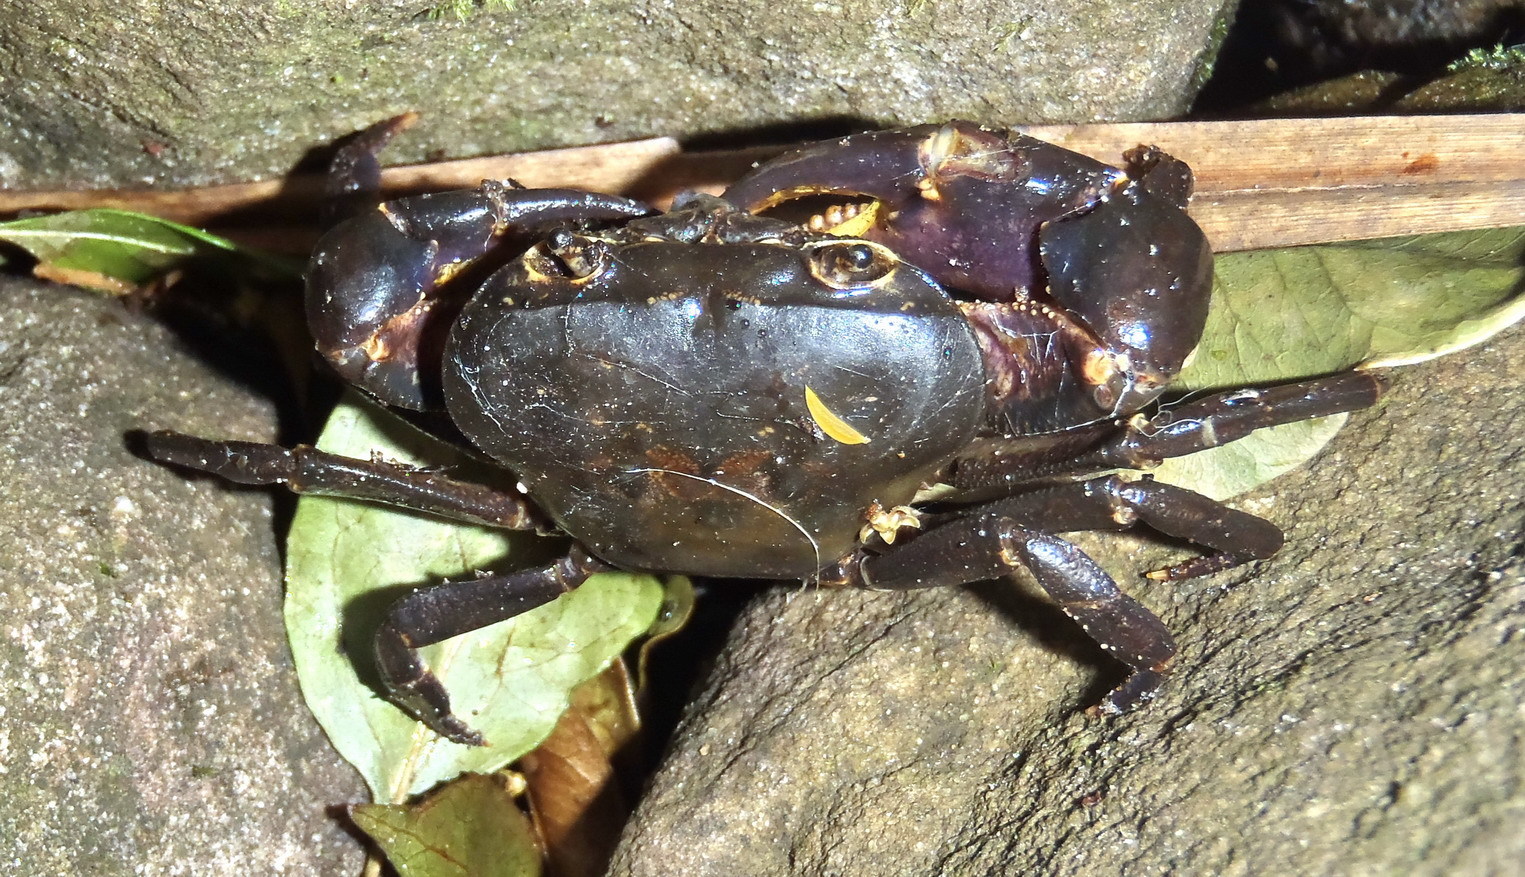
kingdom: Animalia
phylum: Arthropoda
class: Malacostraca
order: Decapoda
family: Potamonautidae
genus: Potamonautes
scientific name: Potamonautes perlatus
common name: Cape river crab
